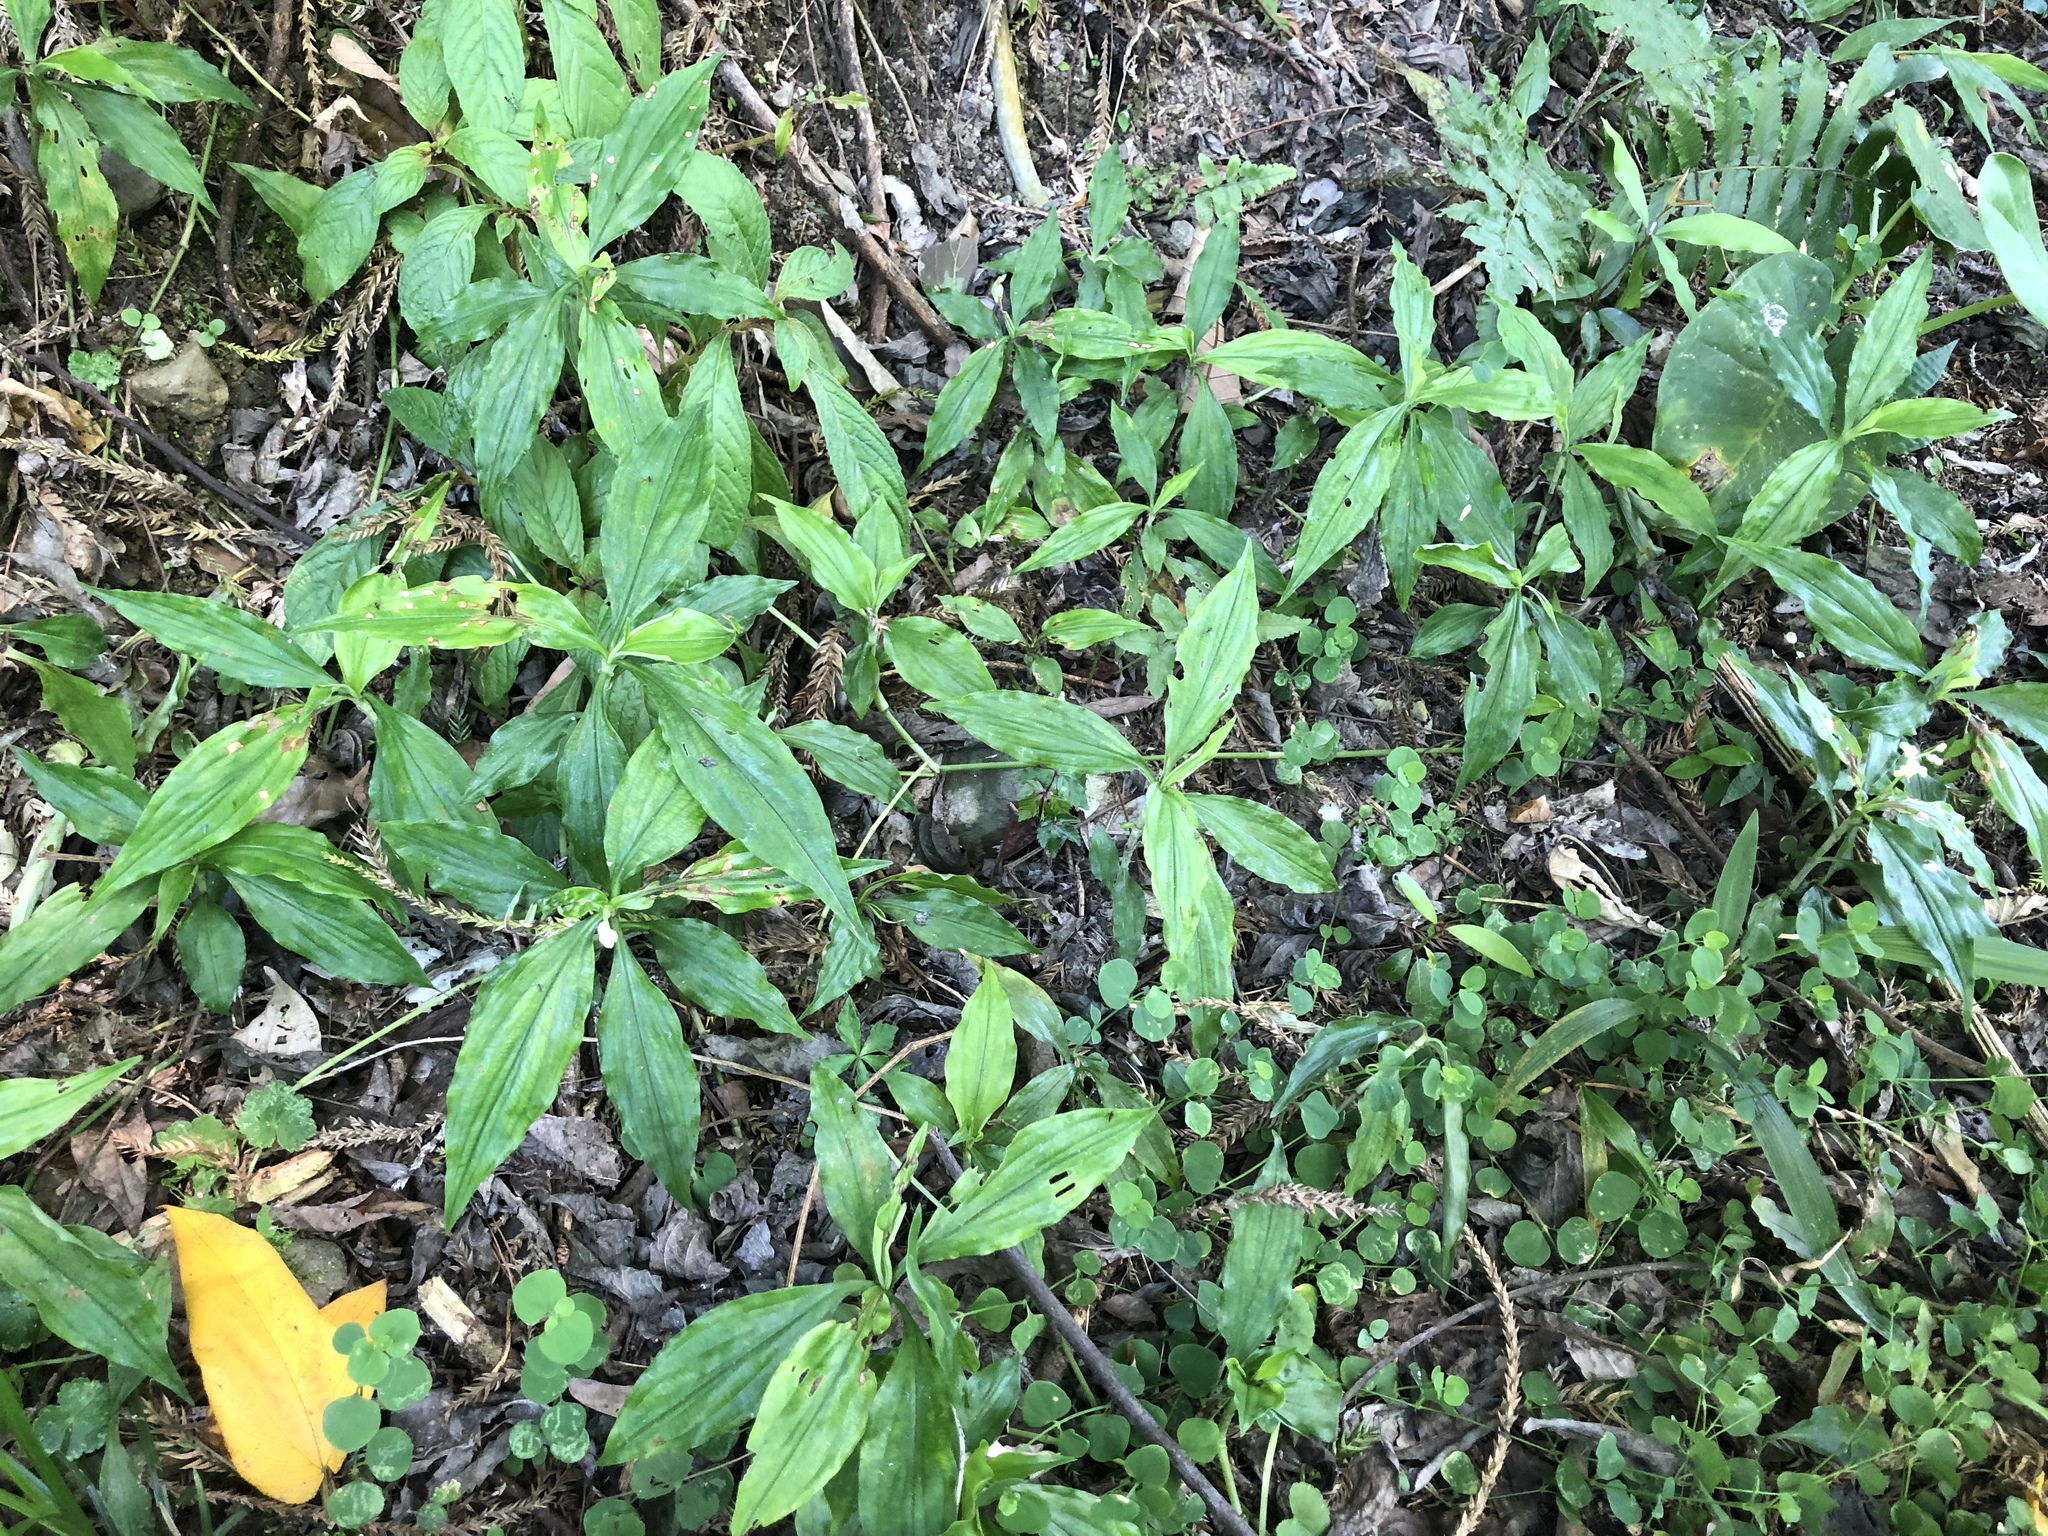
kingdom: Plantae
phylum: Tracheophyta
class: Liliopsida
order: Commelinales
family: Commelinaceae
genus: Pollia
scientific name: Pollia miranda
